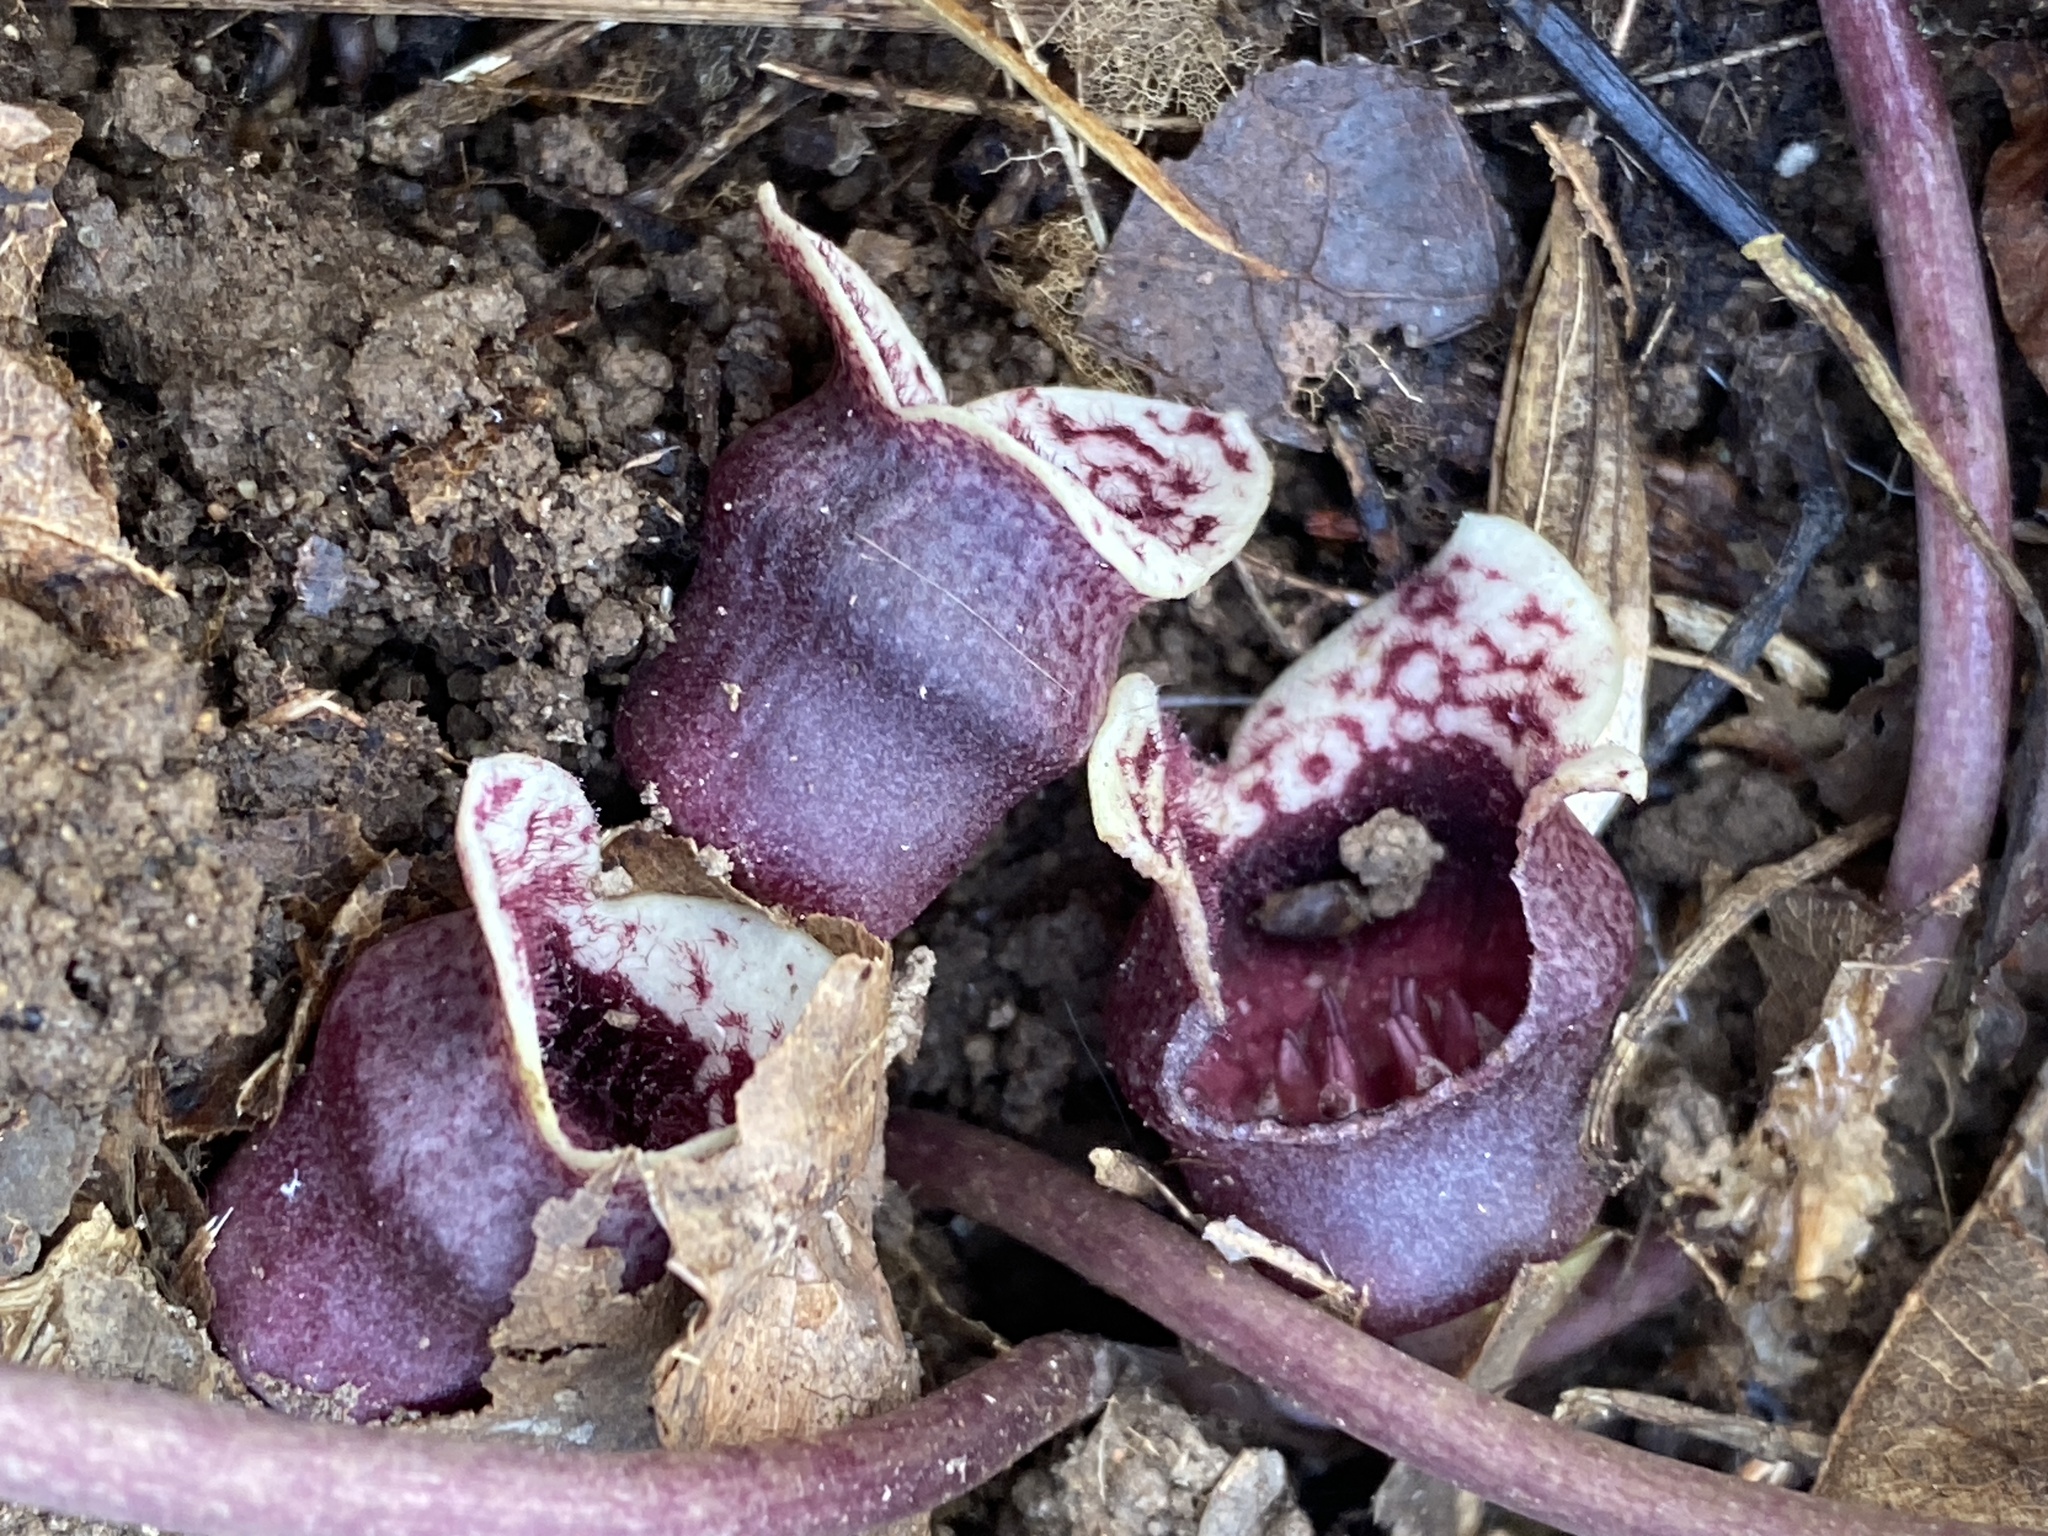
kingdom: Plantae
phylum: Tracheophyta
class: Magnoliopsida
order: Piperales
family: Aristolochiaceae
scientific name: Aristolochiaceae
